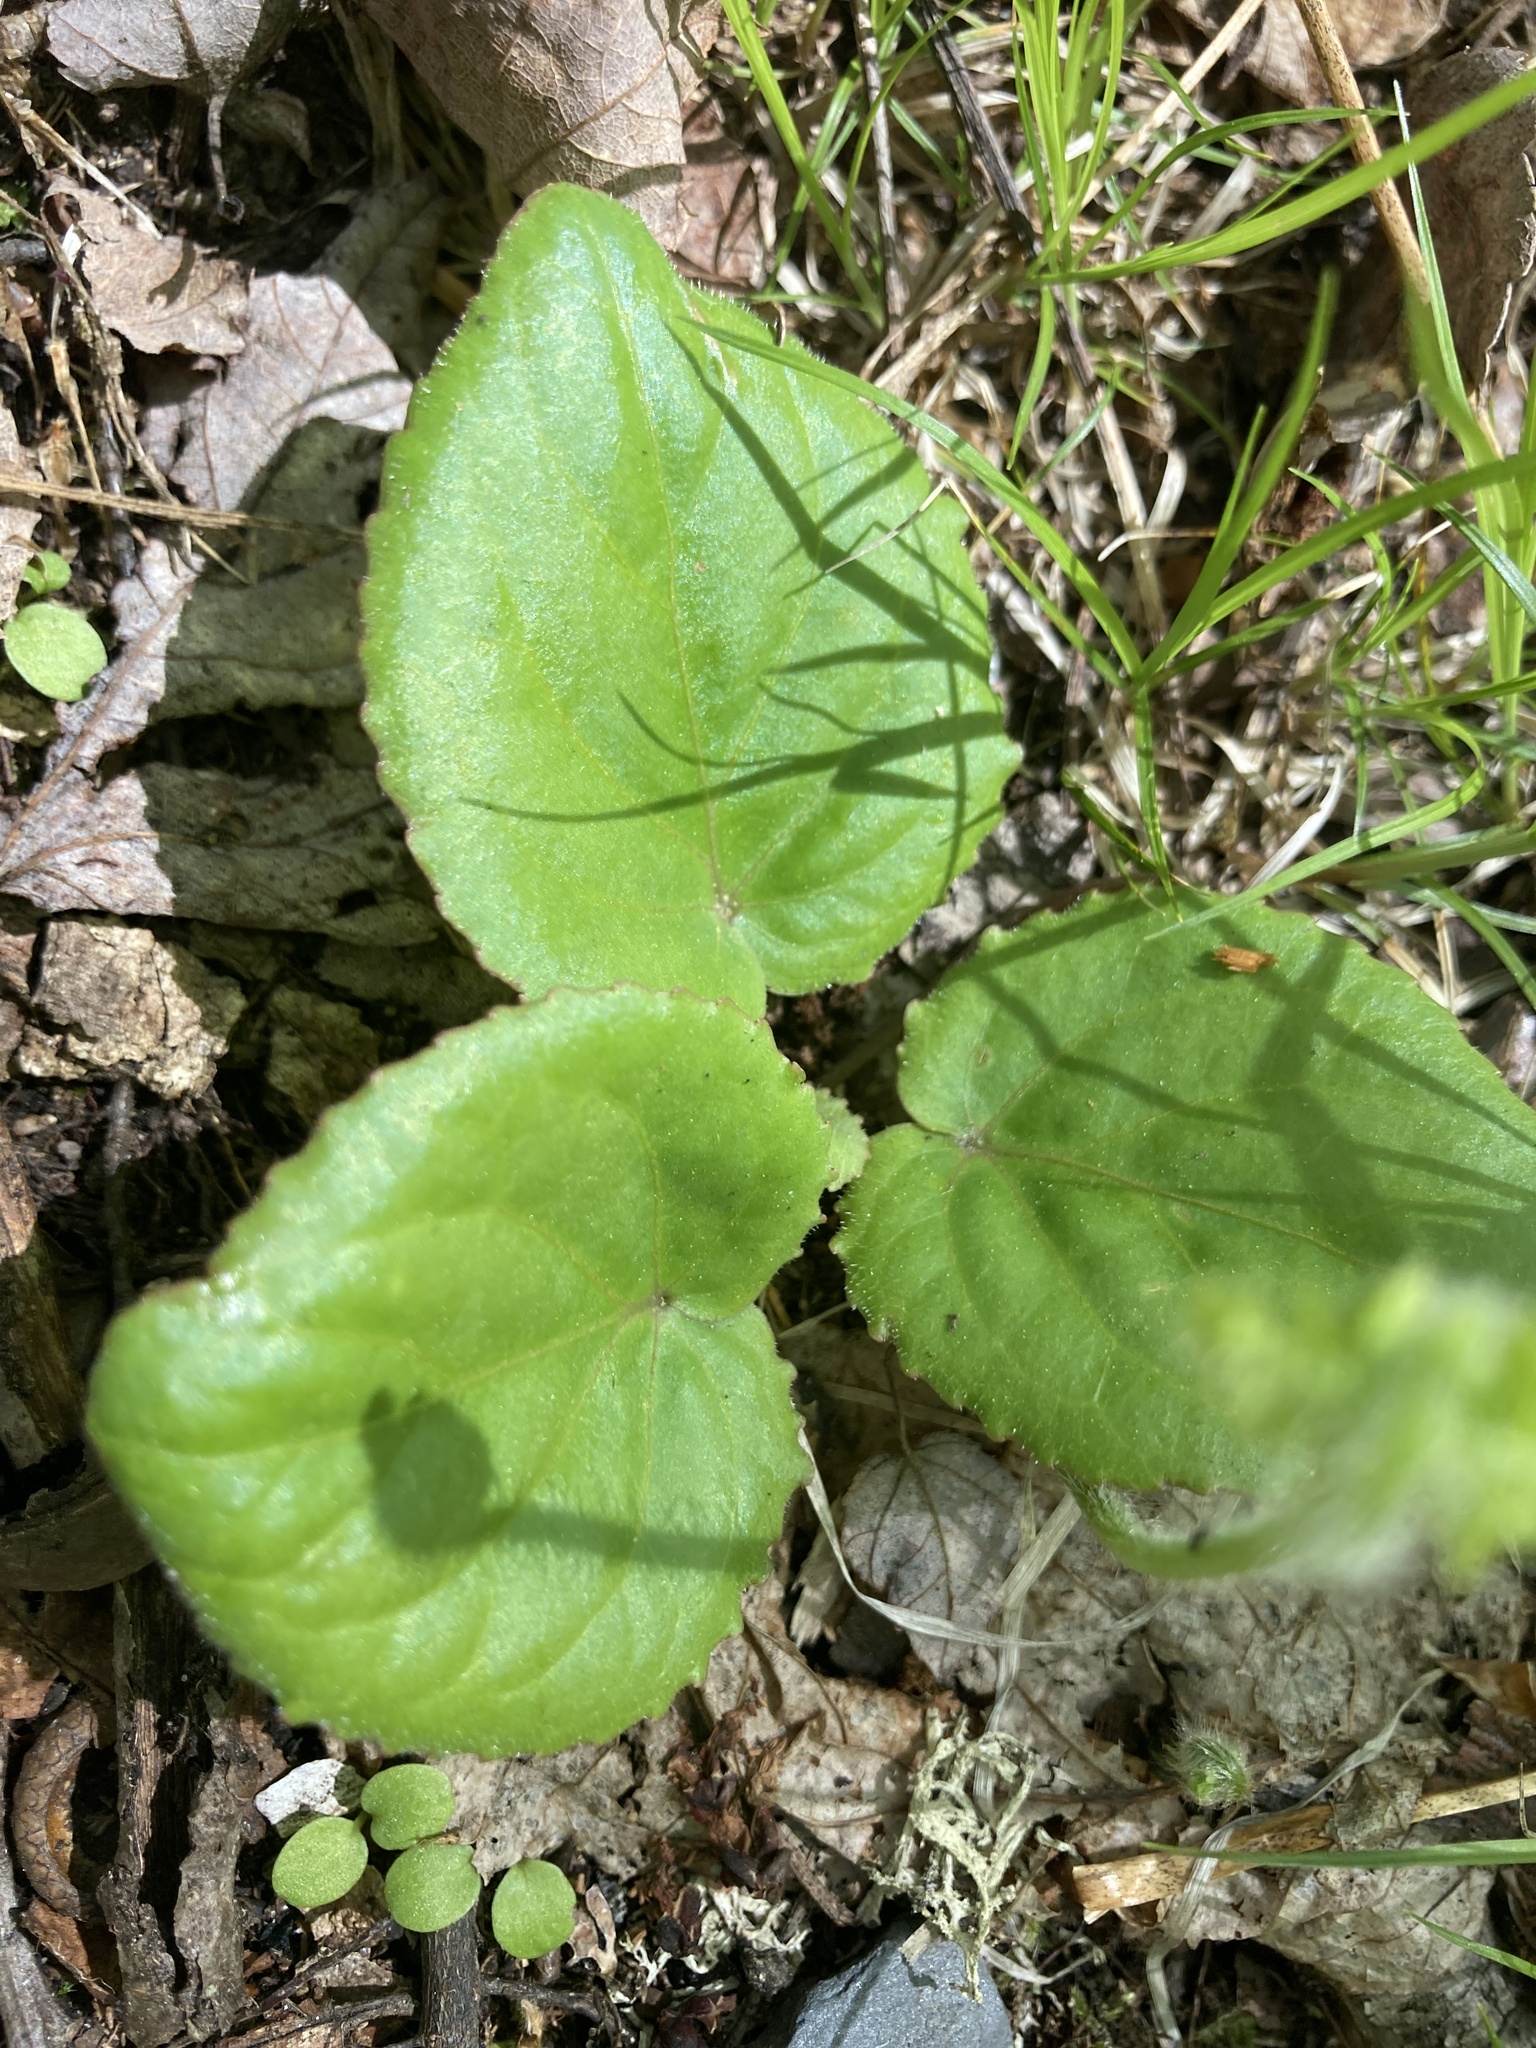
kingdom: Plantae
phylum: Tracheophyta
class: Magnoliopsida
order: Malpighiales
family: Violaceae
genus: Viola
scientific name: Viola rotundifolia
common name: Early yellow violet
